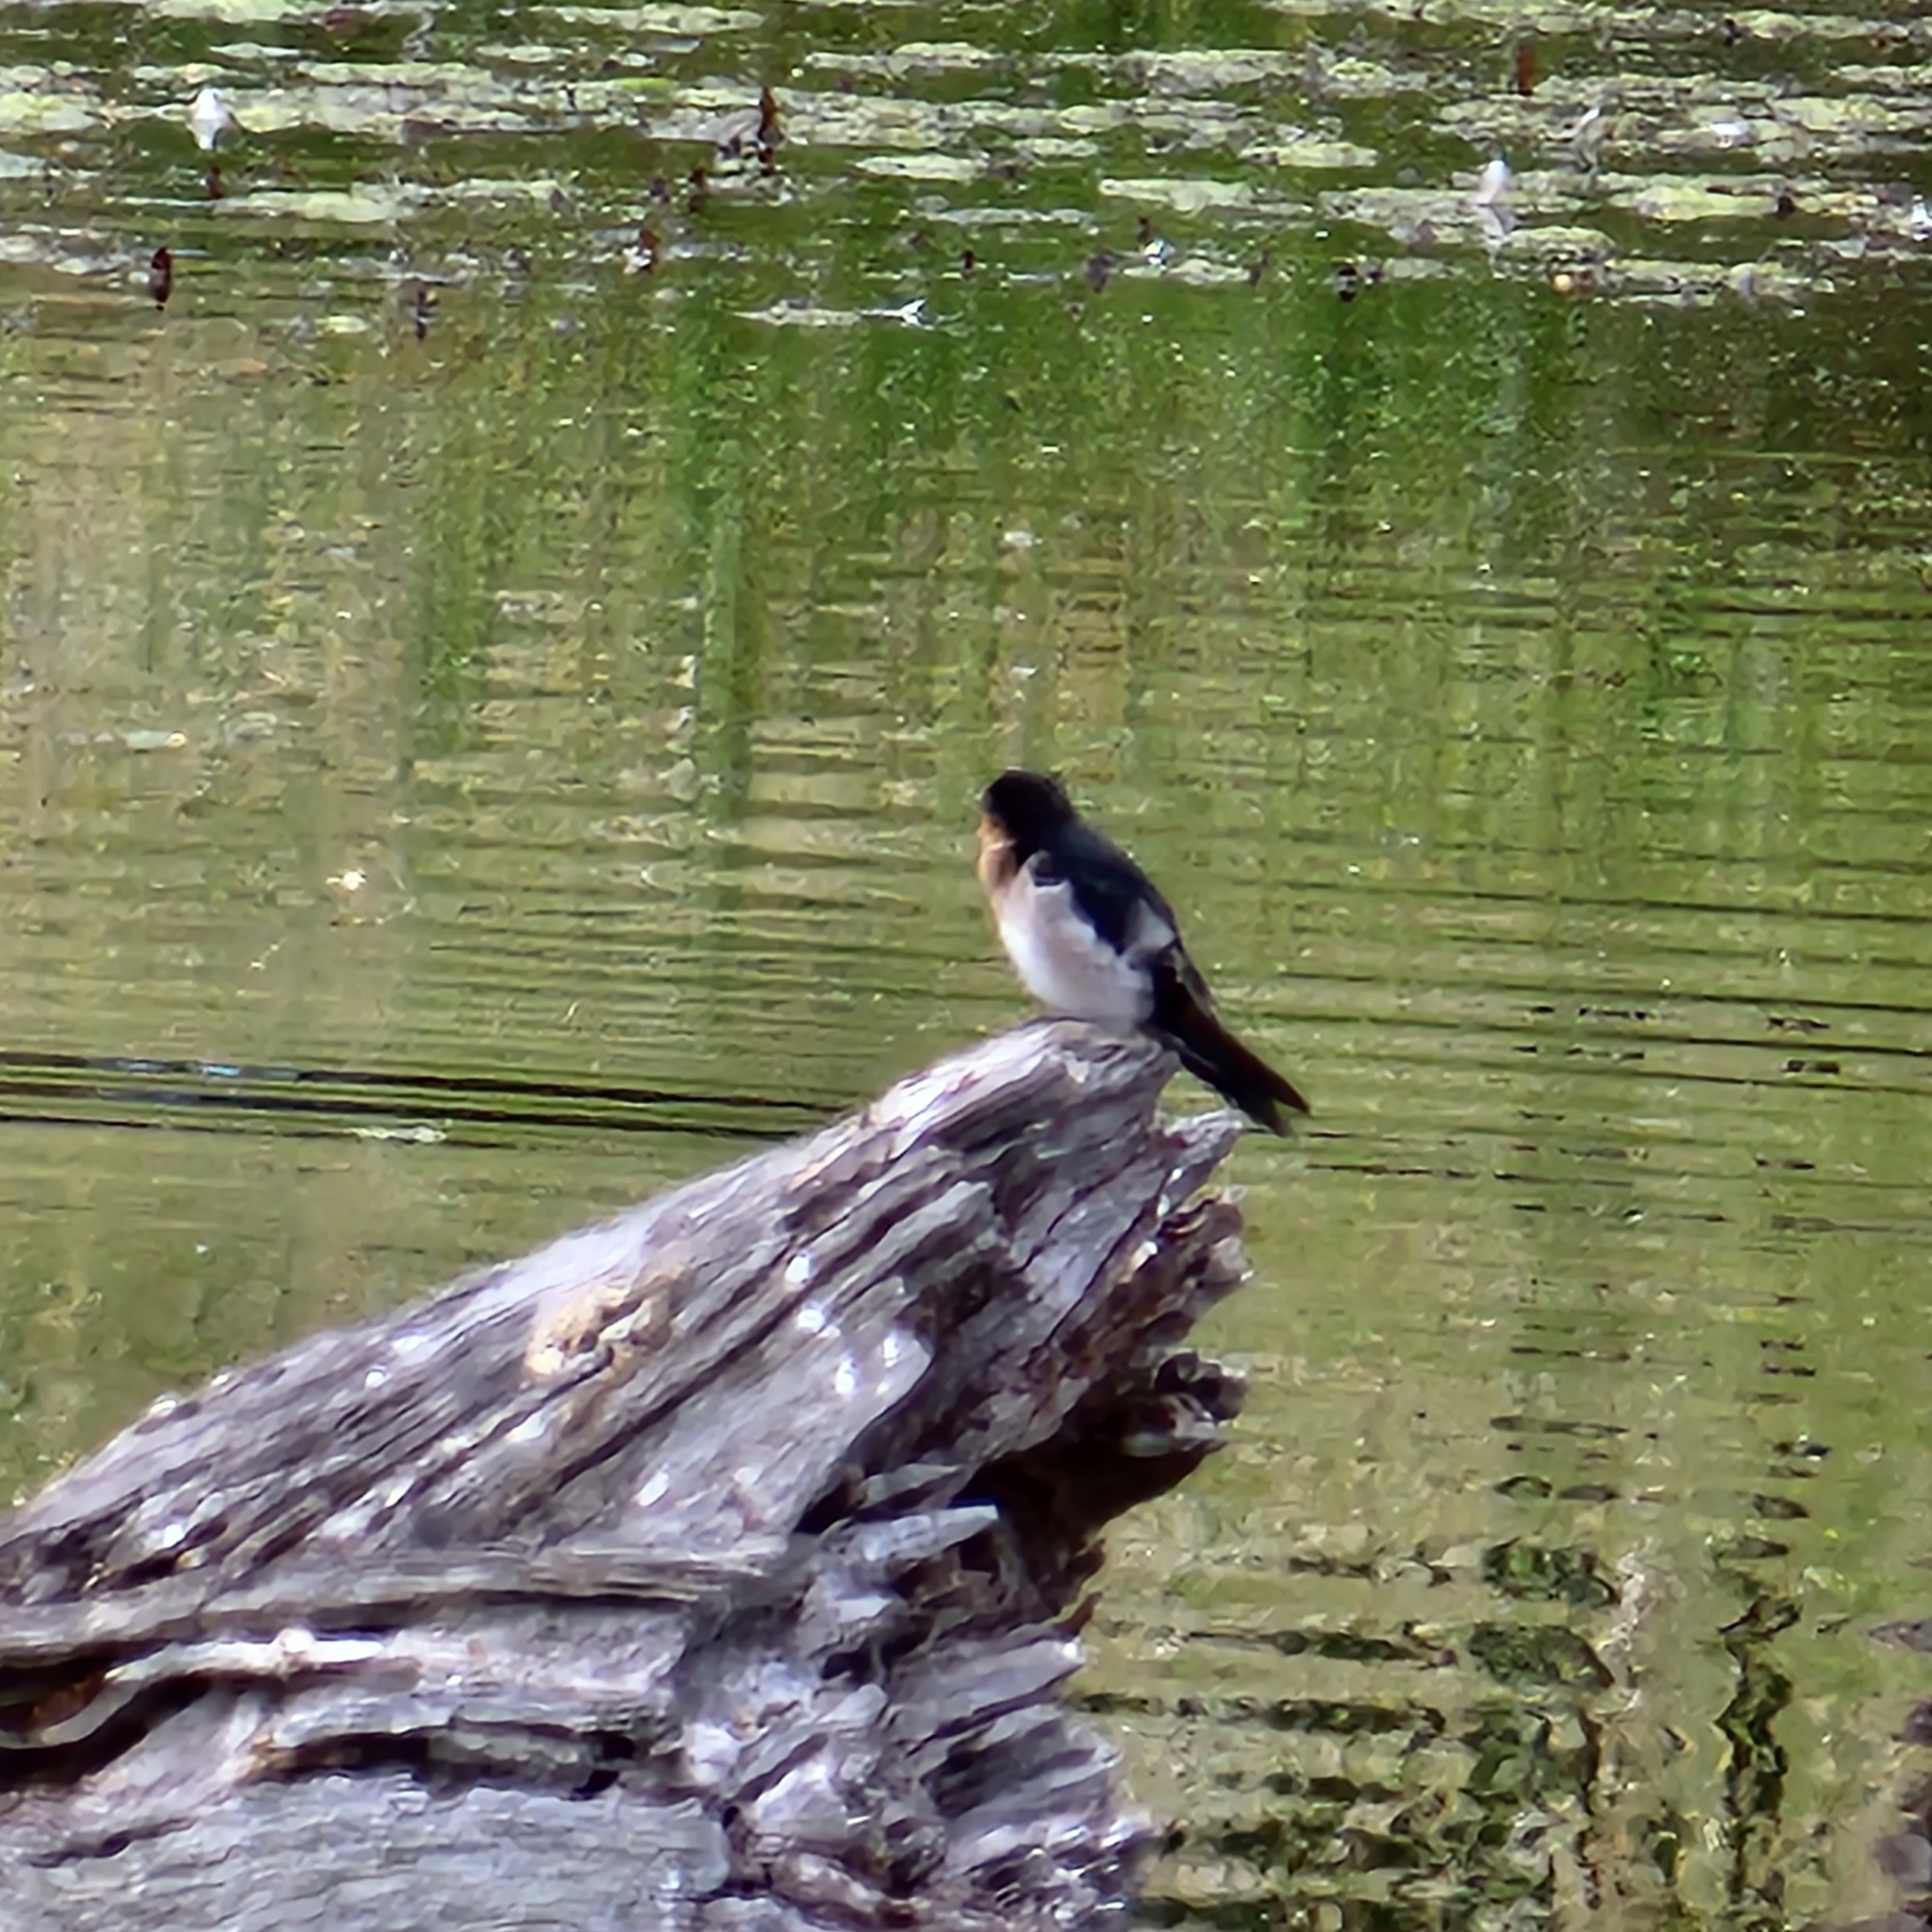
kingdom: Animalia
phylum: Chordata
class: Aves
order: Passeriformes
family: Hirundinidae
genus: Hirundo
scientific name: Hirundo neoxena
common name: Welcome swallow
